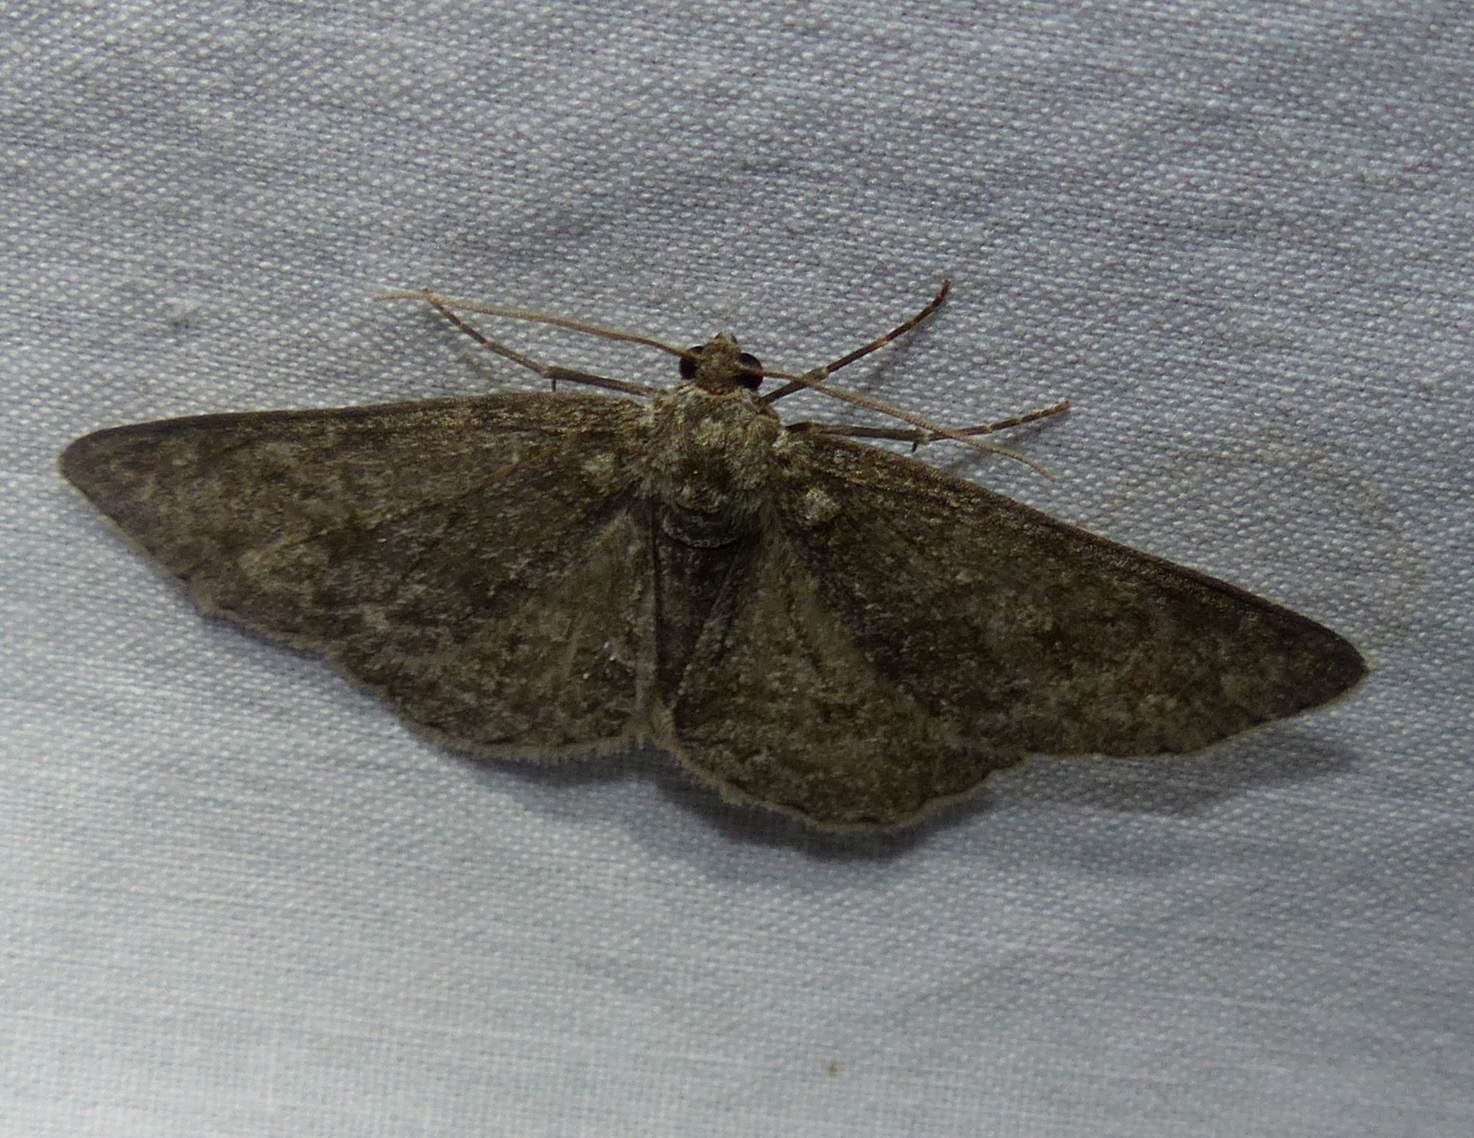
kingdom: Animalia
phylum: Arthropoda
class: Insecta
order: Lepidoptera
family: Geometridae
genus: Ectropis
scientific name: Ectropis crepuscularia
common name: Engrailed
